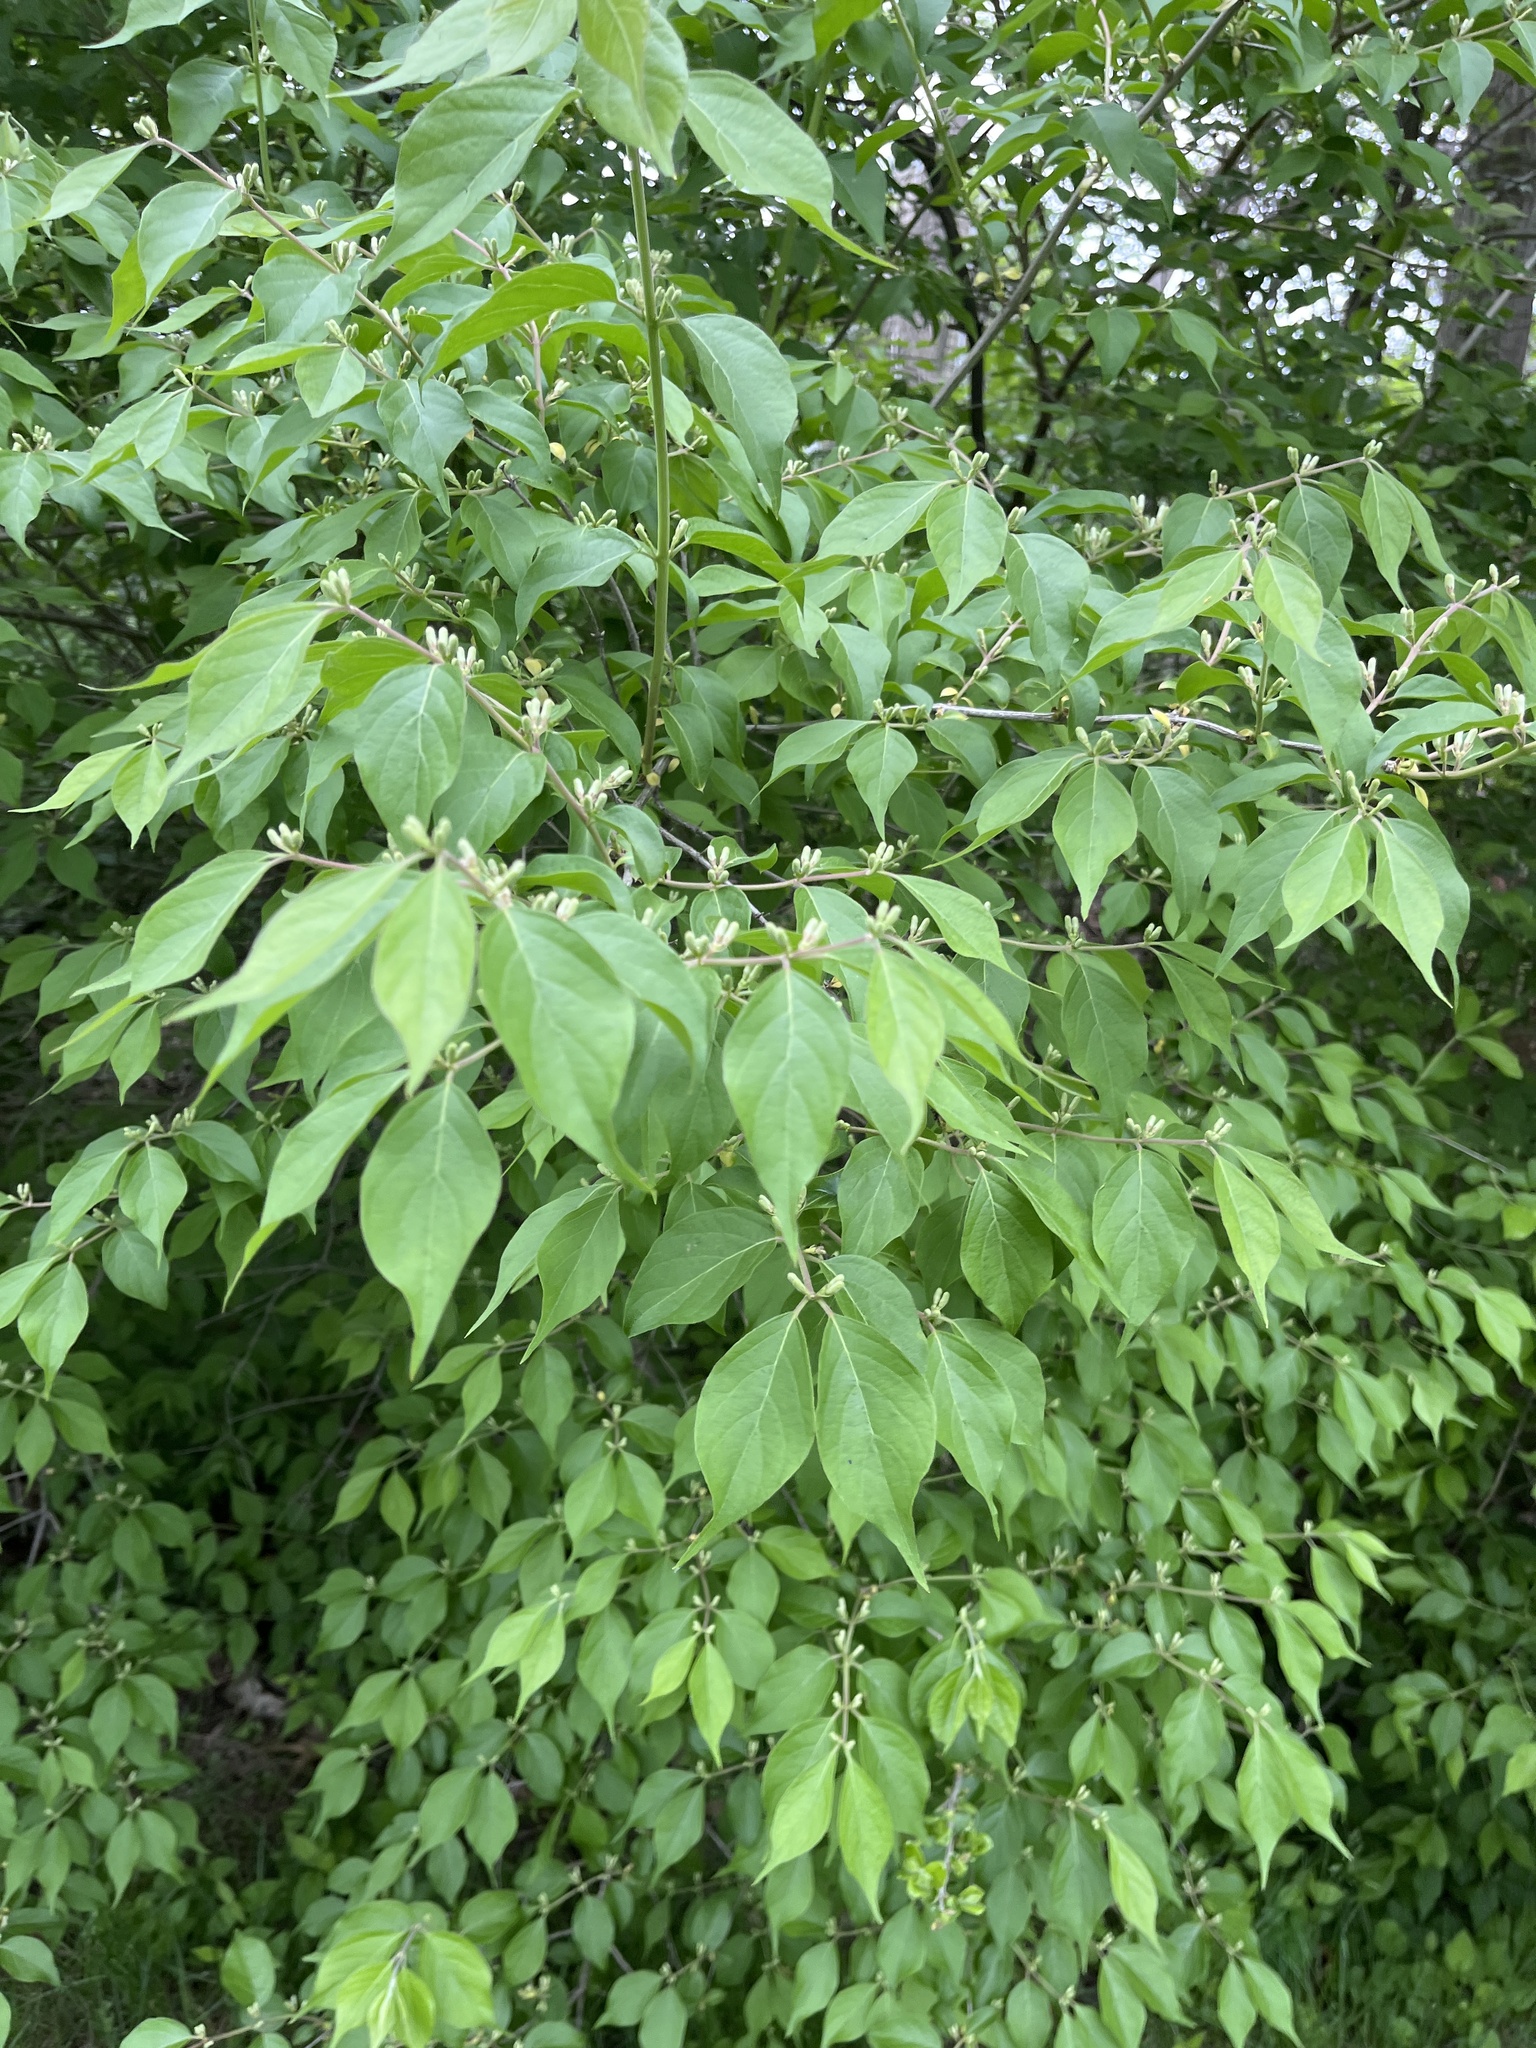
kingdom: Plantae
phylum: Tracheophyta
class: Magnoliopsida
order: Dipsacales
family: Caprifoliaceae
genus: Lonicera
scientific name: Lonicera maackii
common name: Amur honeysuckle
